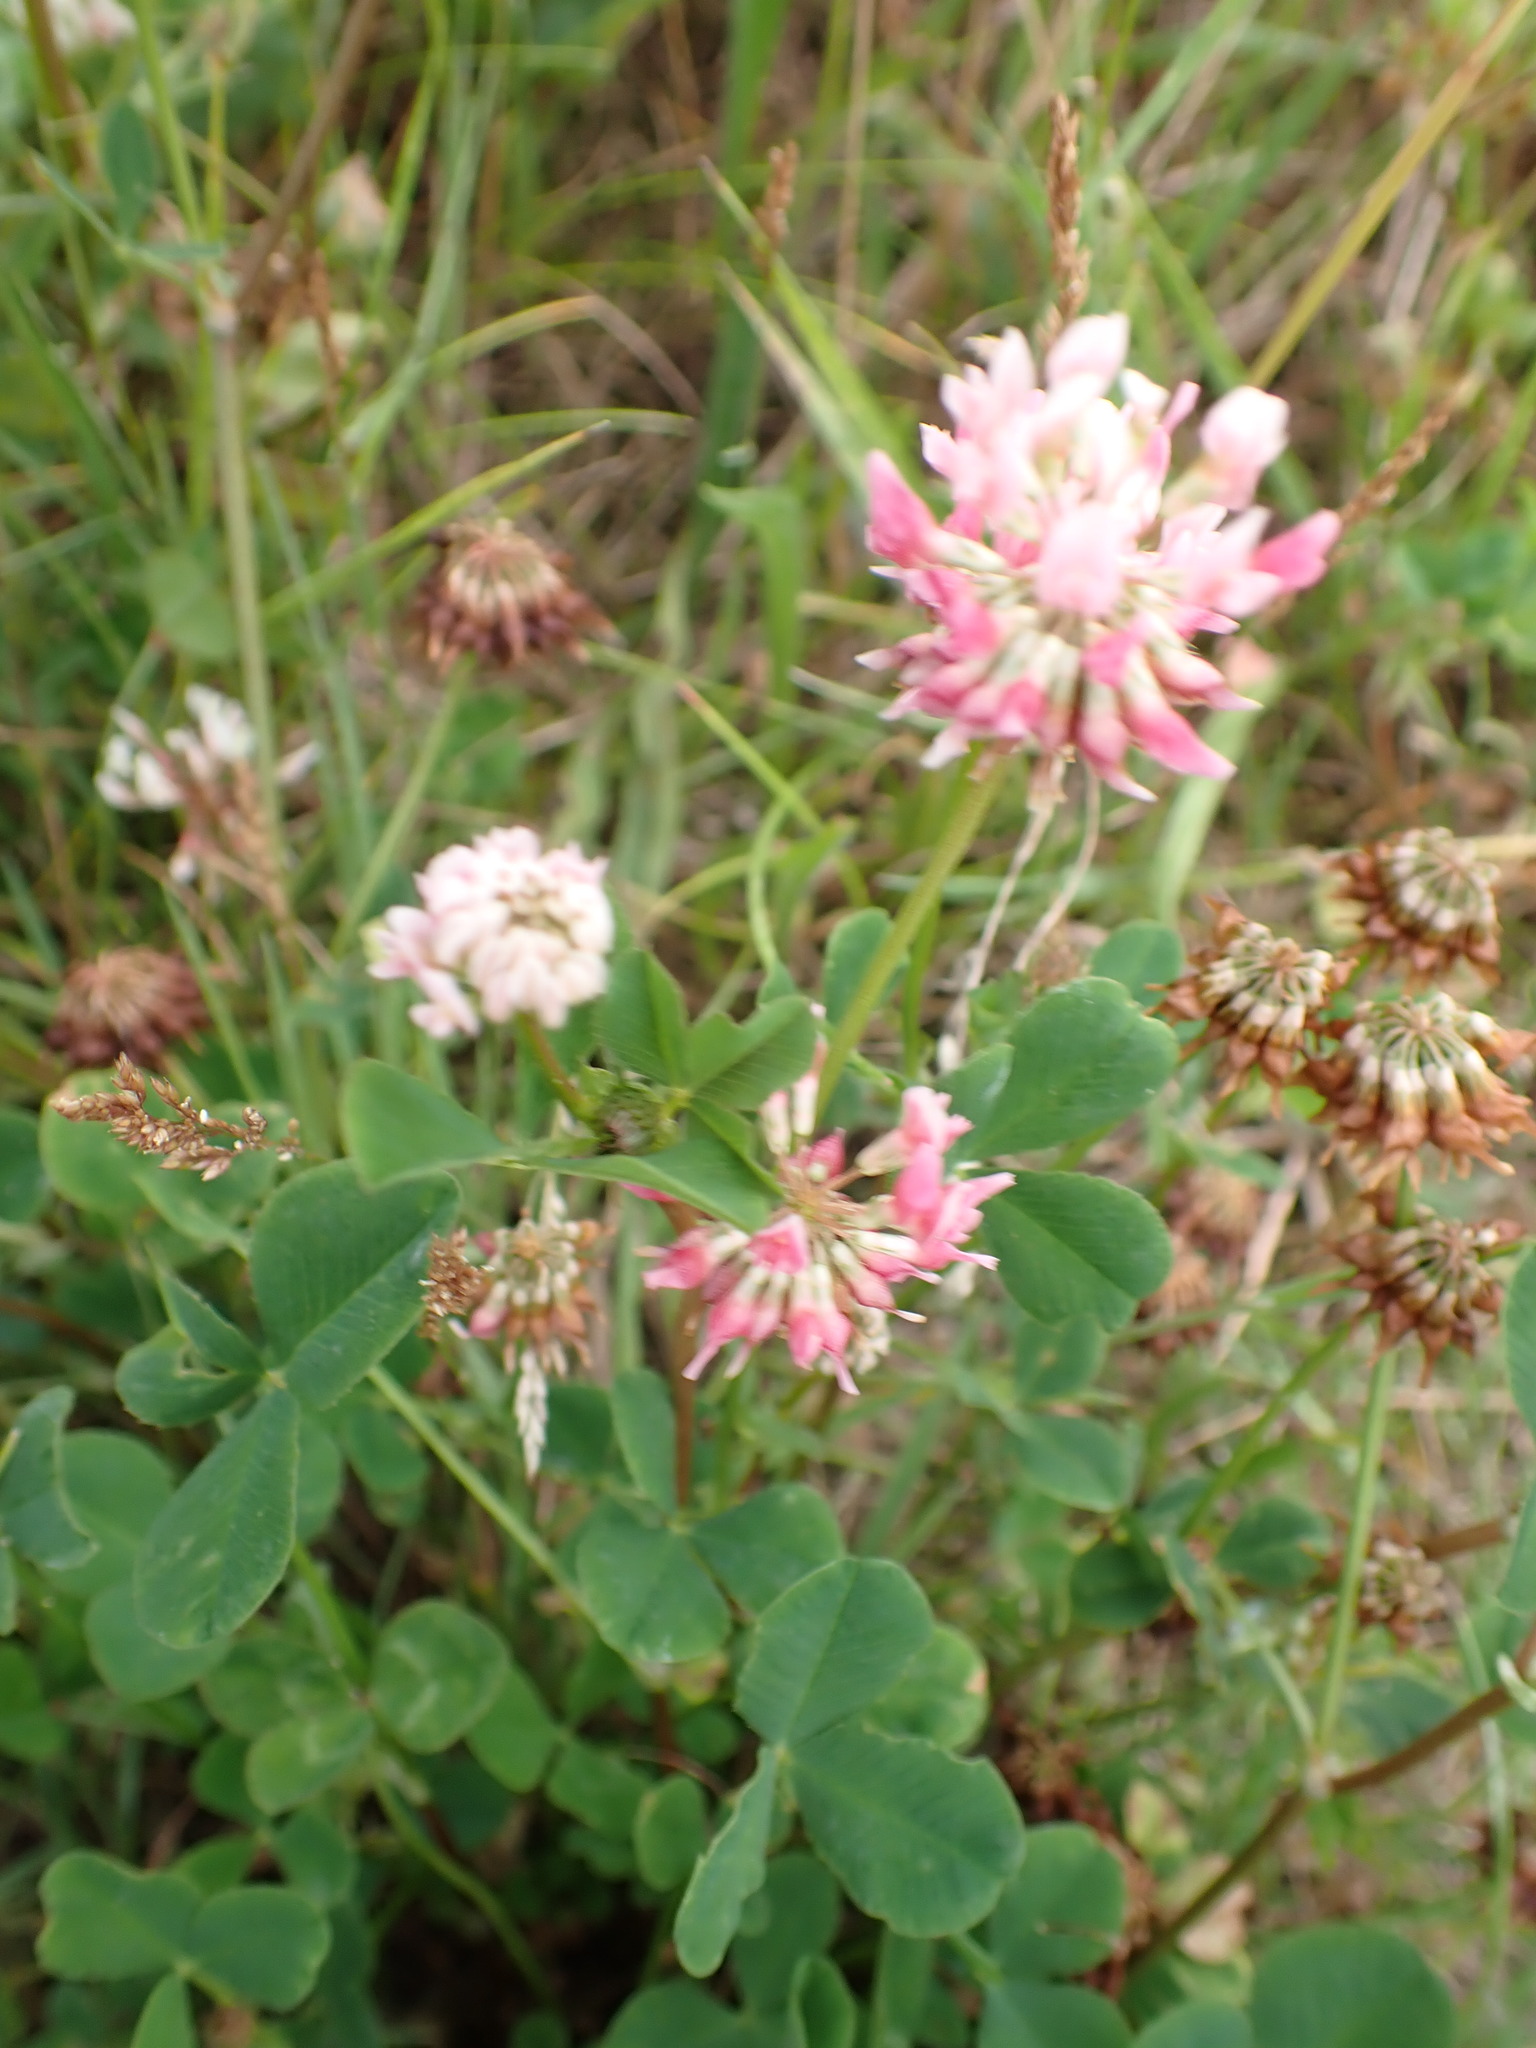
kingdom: Plantae
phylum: Tracheophyta
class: Magnoliopsida
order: Fabales
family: Fabaceae
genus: Trifolium
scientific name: Trifolium hybridum
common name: Alsike clover
